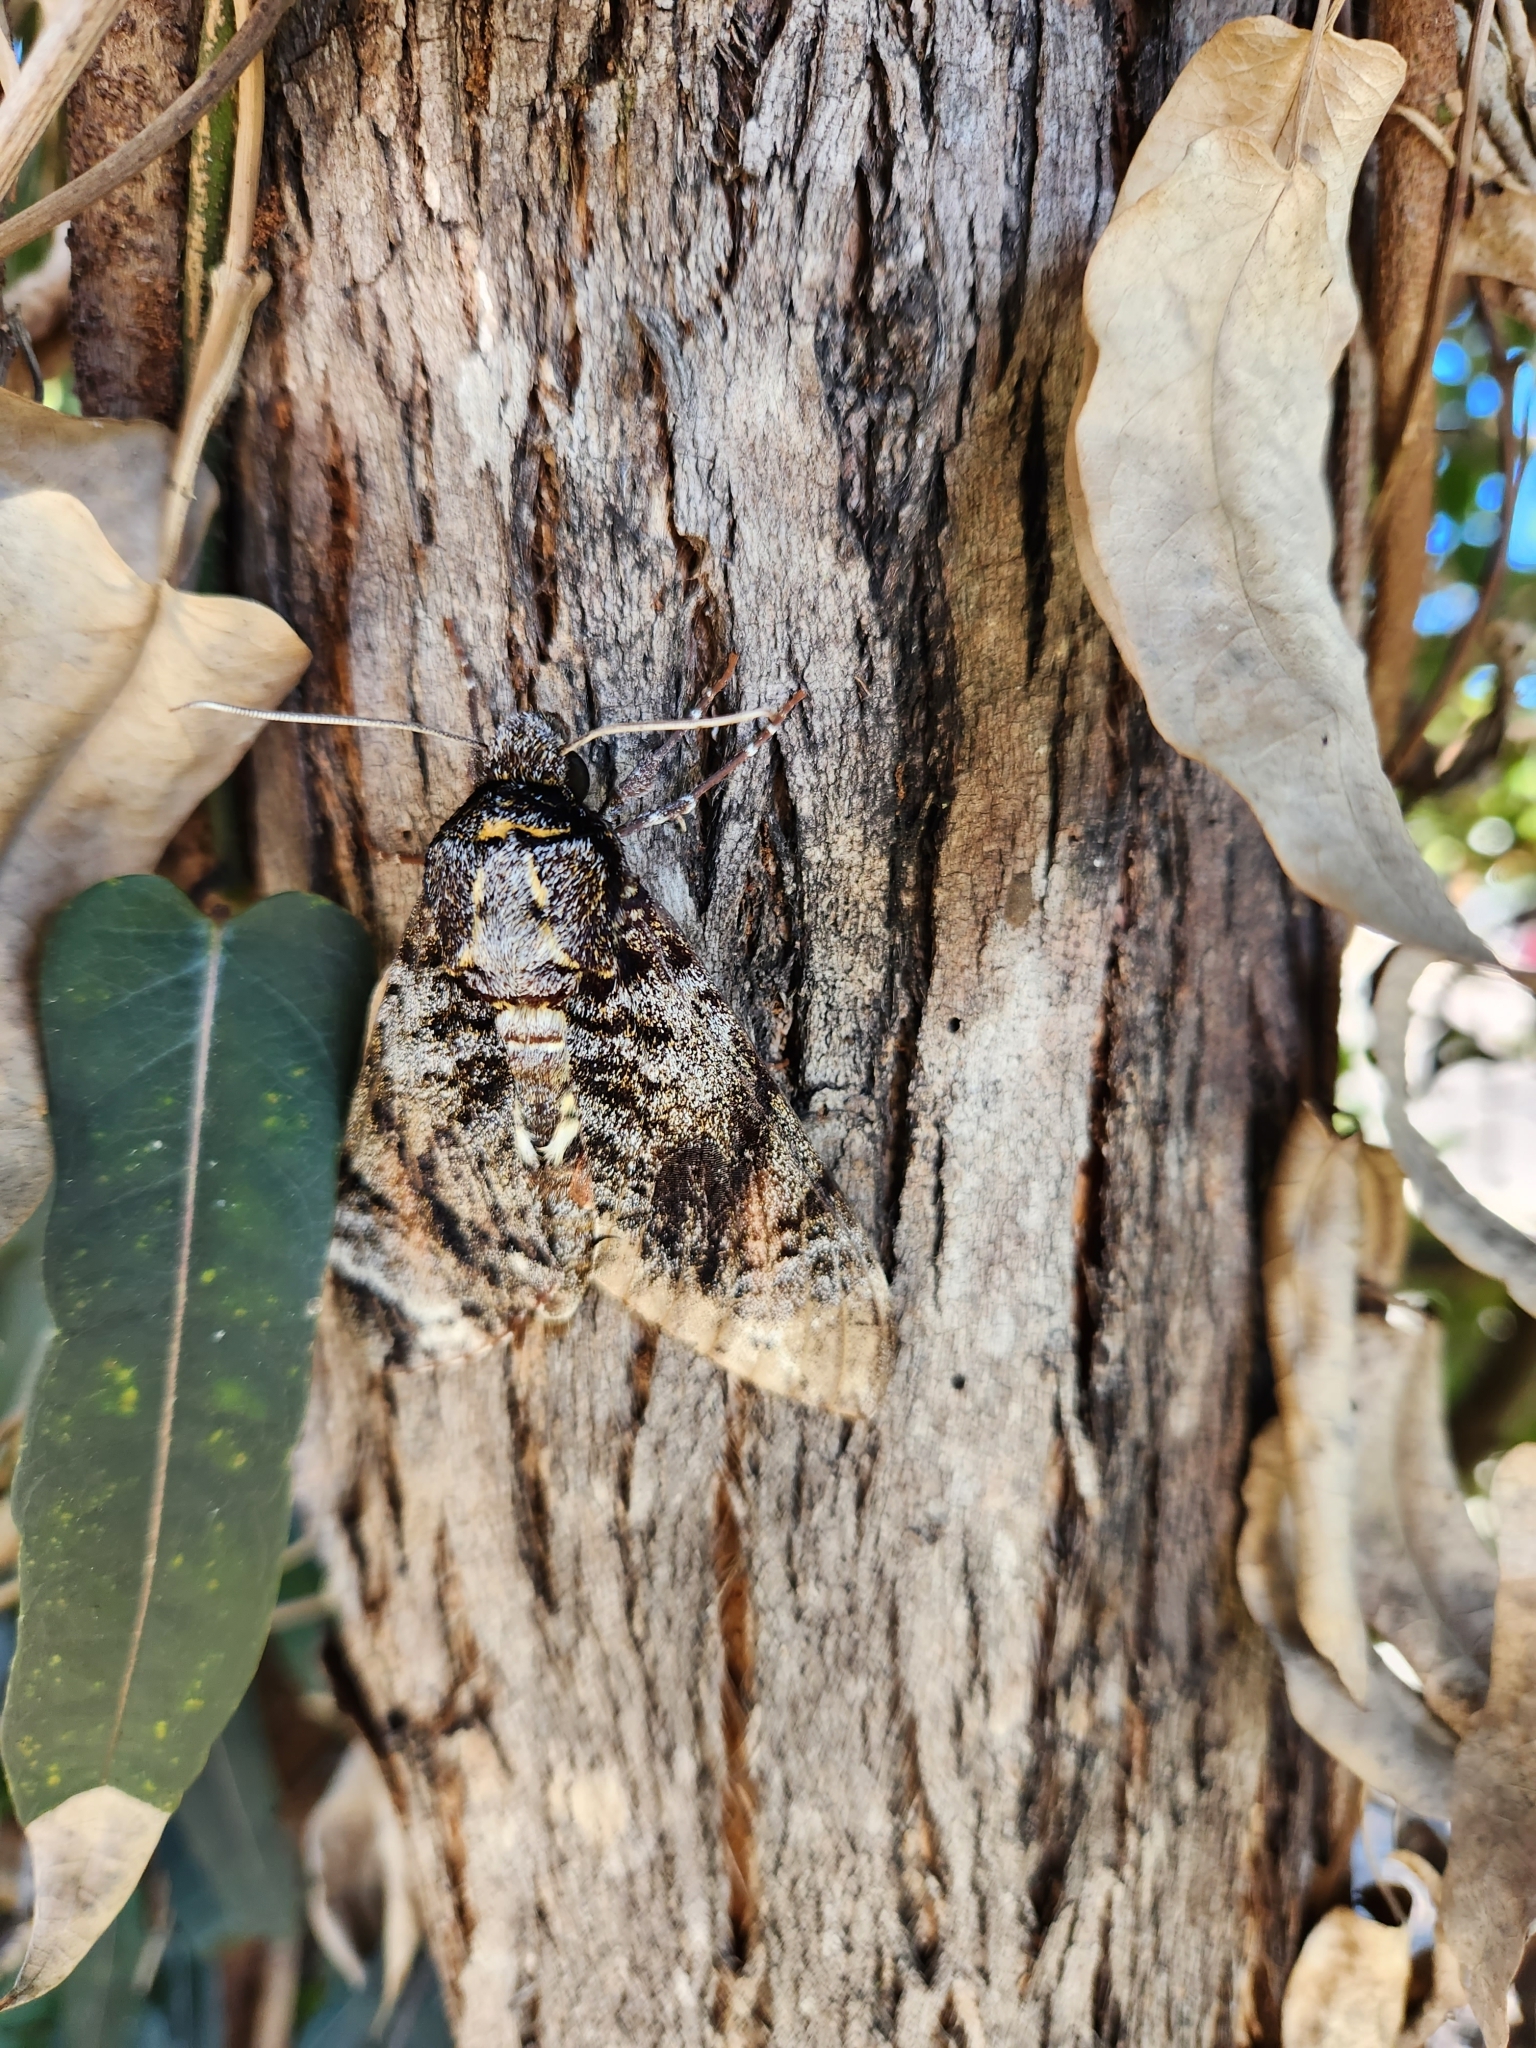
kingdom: Animalia
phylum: Arthropoda
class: Insecta
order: Lepidoptera
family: Sphingidae
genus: Tetrachroa
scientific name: Tetrachroa edwardsi
